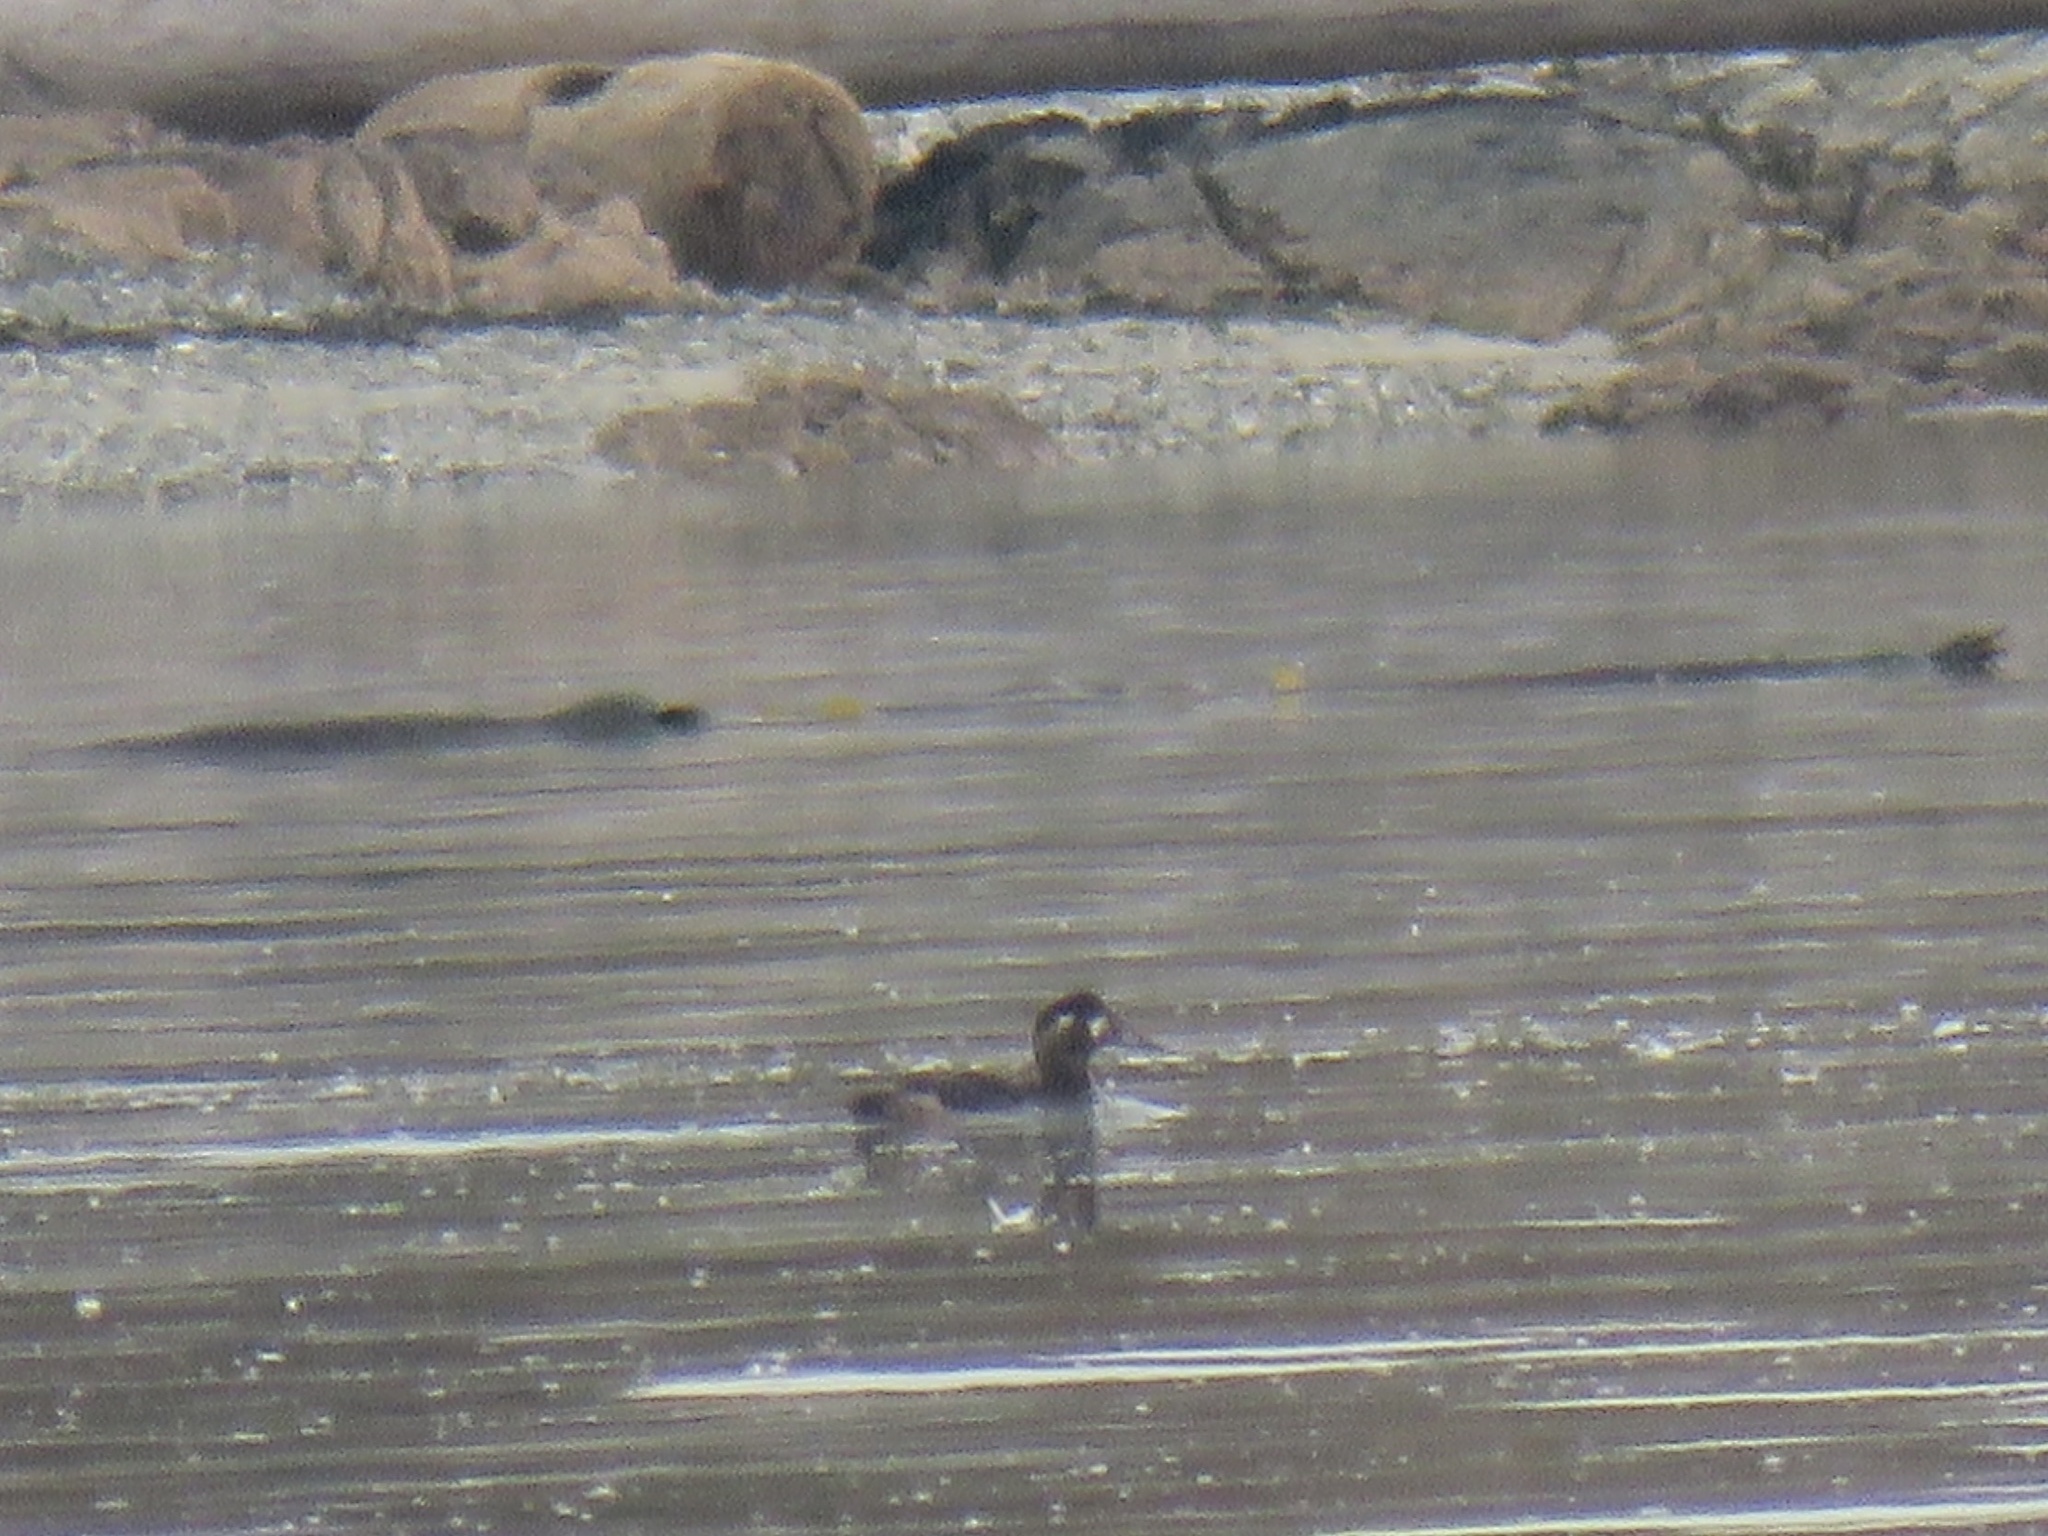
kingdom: Animalia
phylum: Chordata
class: Aves
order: Anseriformes
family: Anatidae
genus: Melanitta
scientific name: Melanitta perspicillata
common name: Surf scoter
